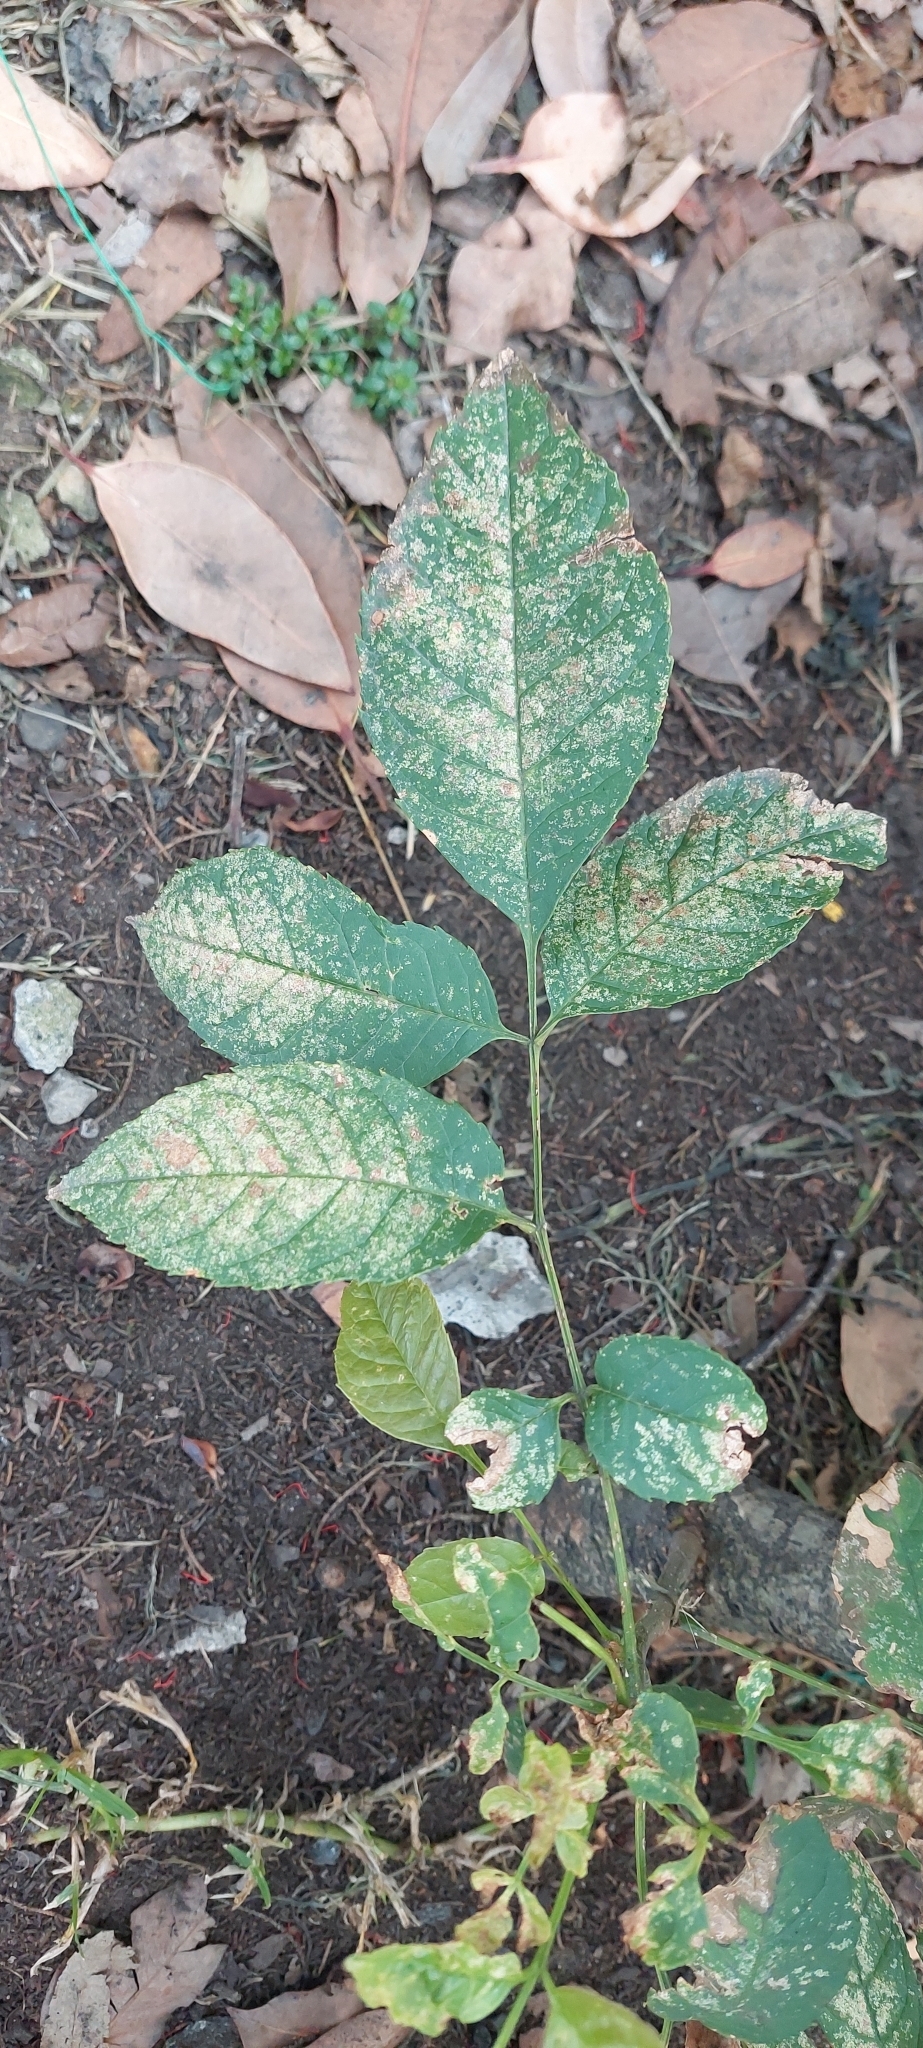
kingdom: Plantae
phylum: Tracheophyta
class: Magnoliopsida
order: Lamiales
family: Oleaceae
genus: Fraxinus
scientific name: Fraxinus uhdei
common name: Shamel ash
